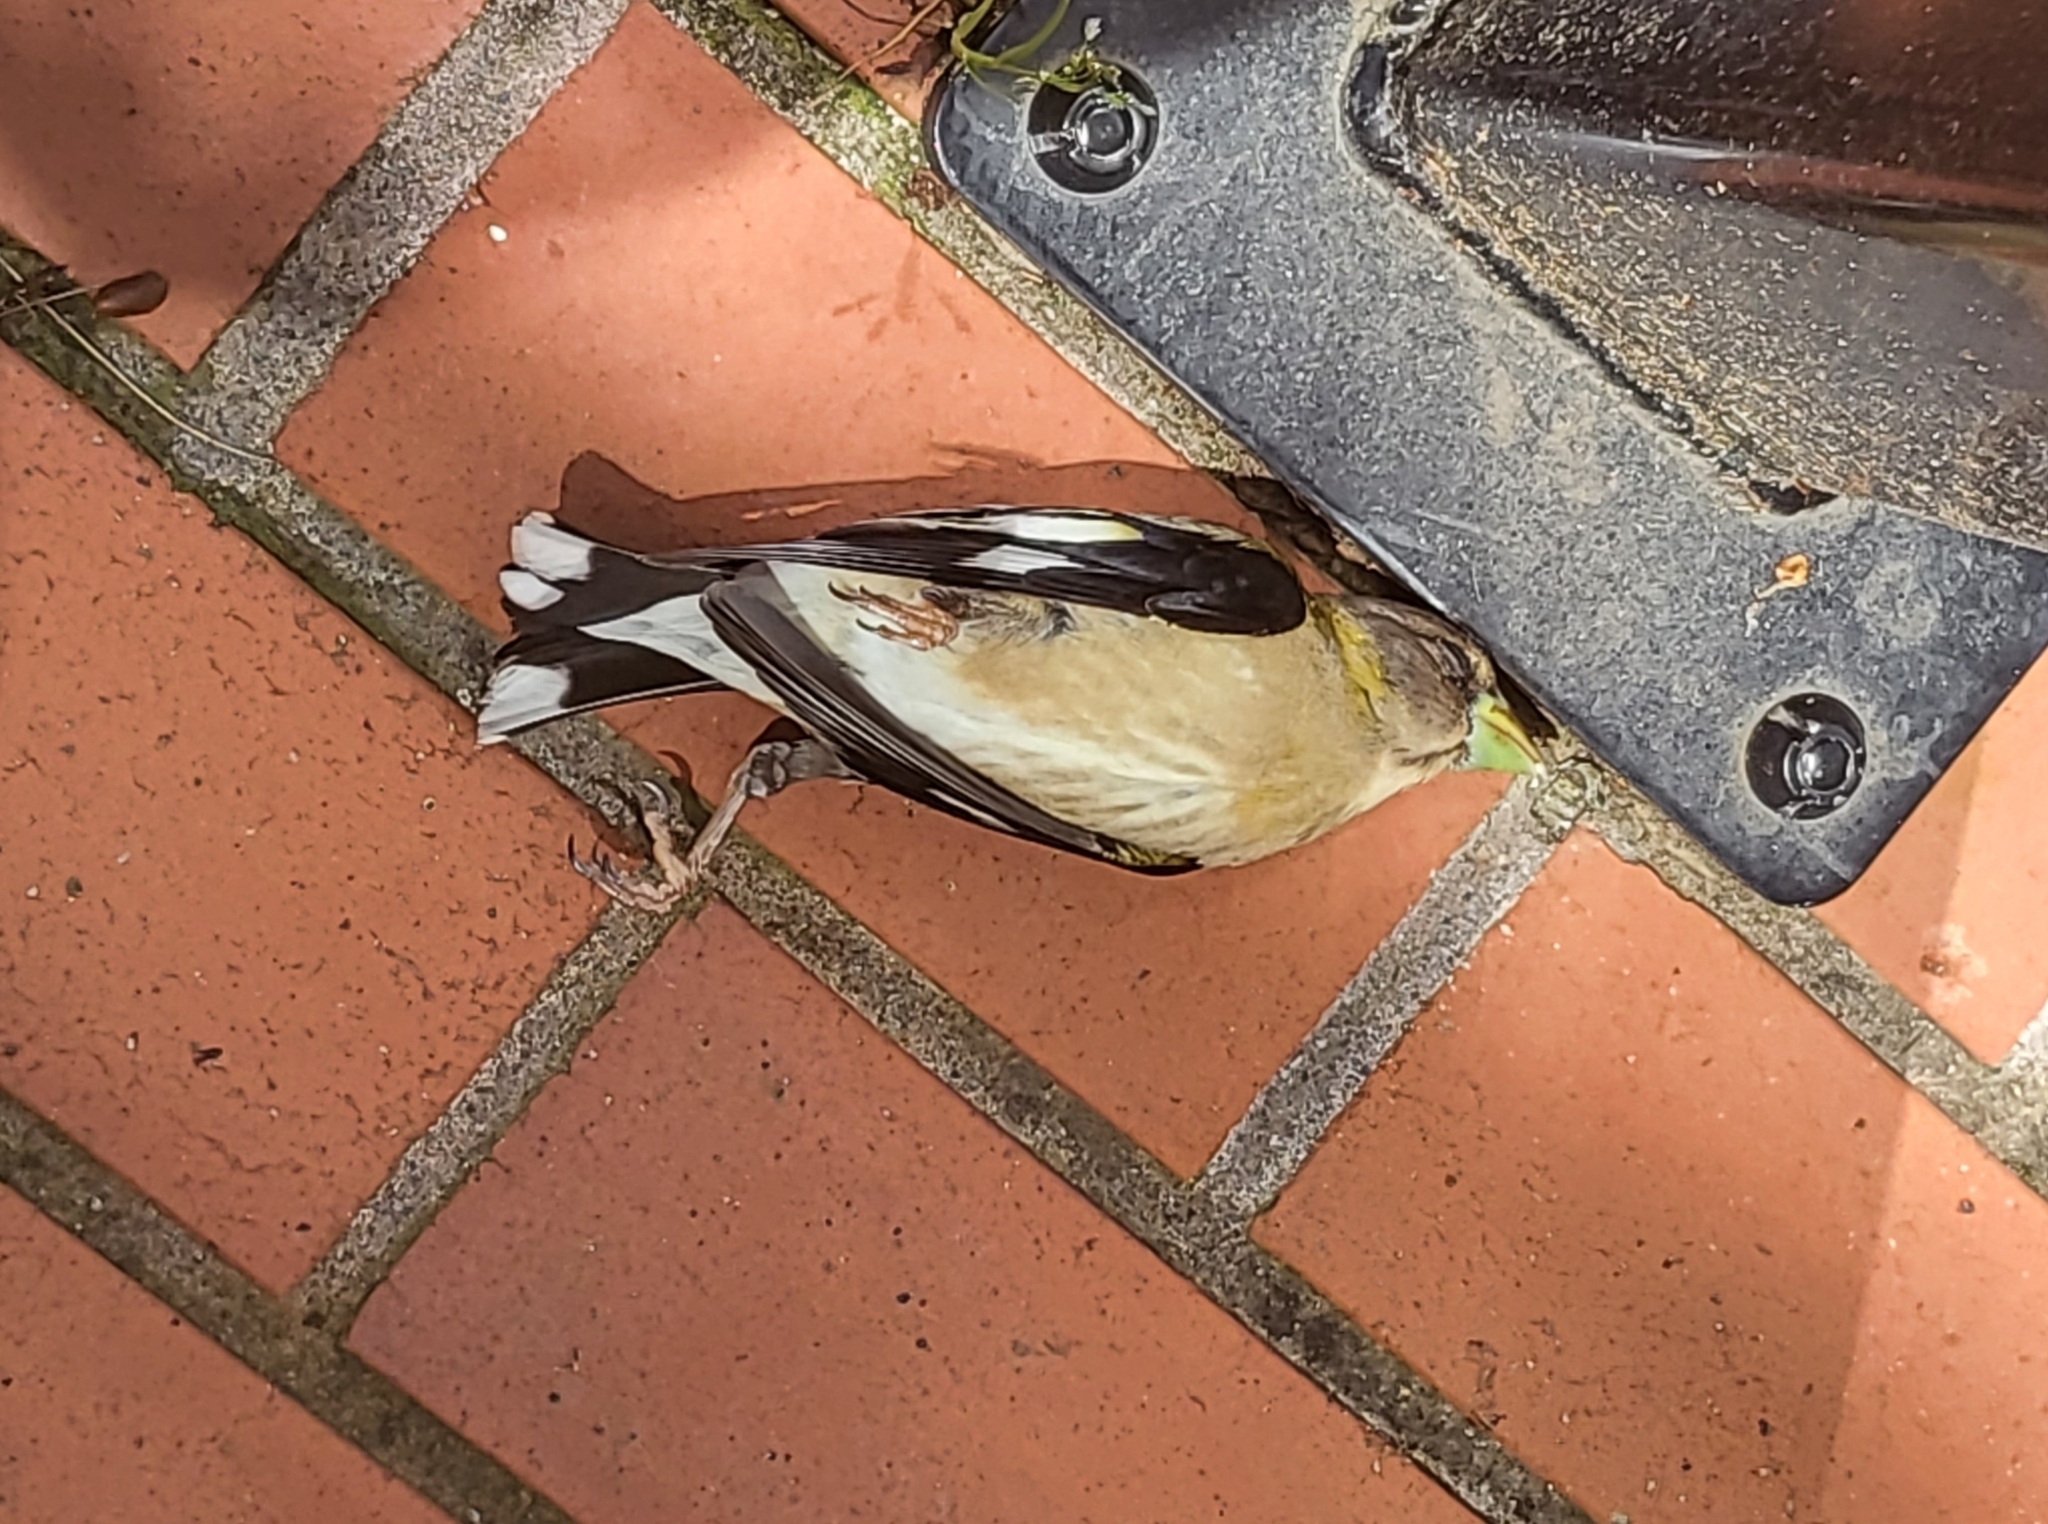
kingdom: Animalia
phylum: Chordata
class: Aves
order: Passeriformes
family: Fringillidae
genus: Hesperiphona
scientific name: Hesperiphona vespertina
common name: Evening grosbeak
